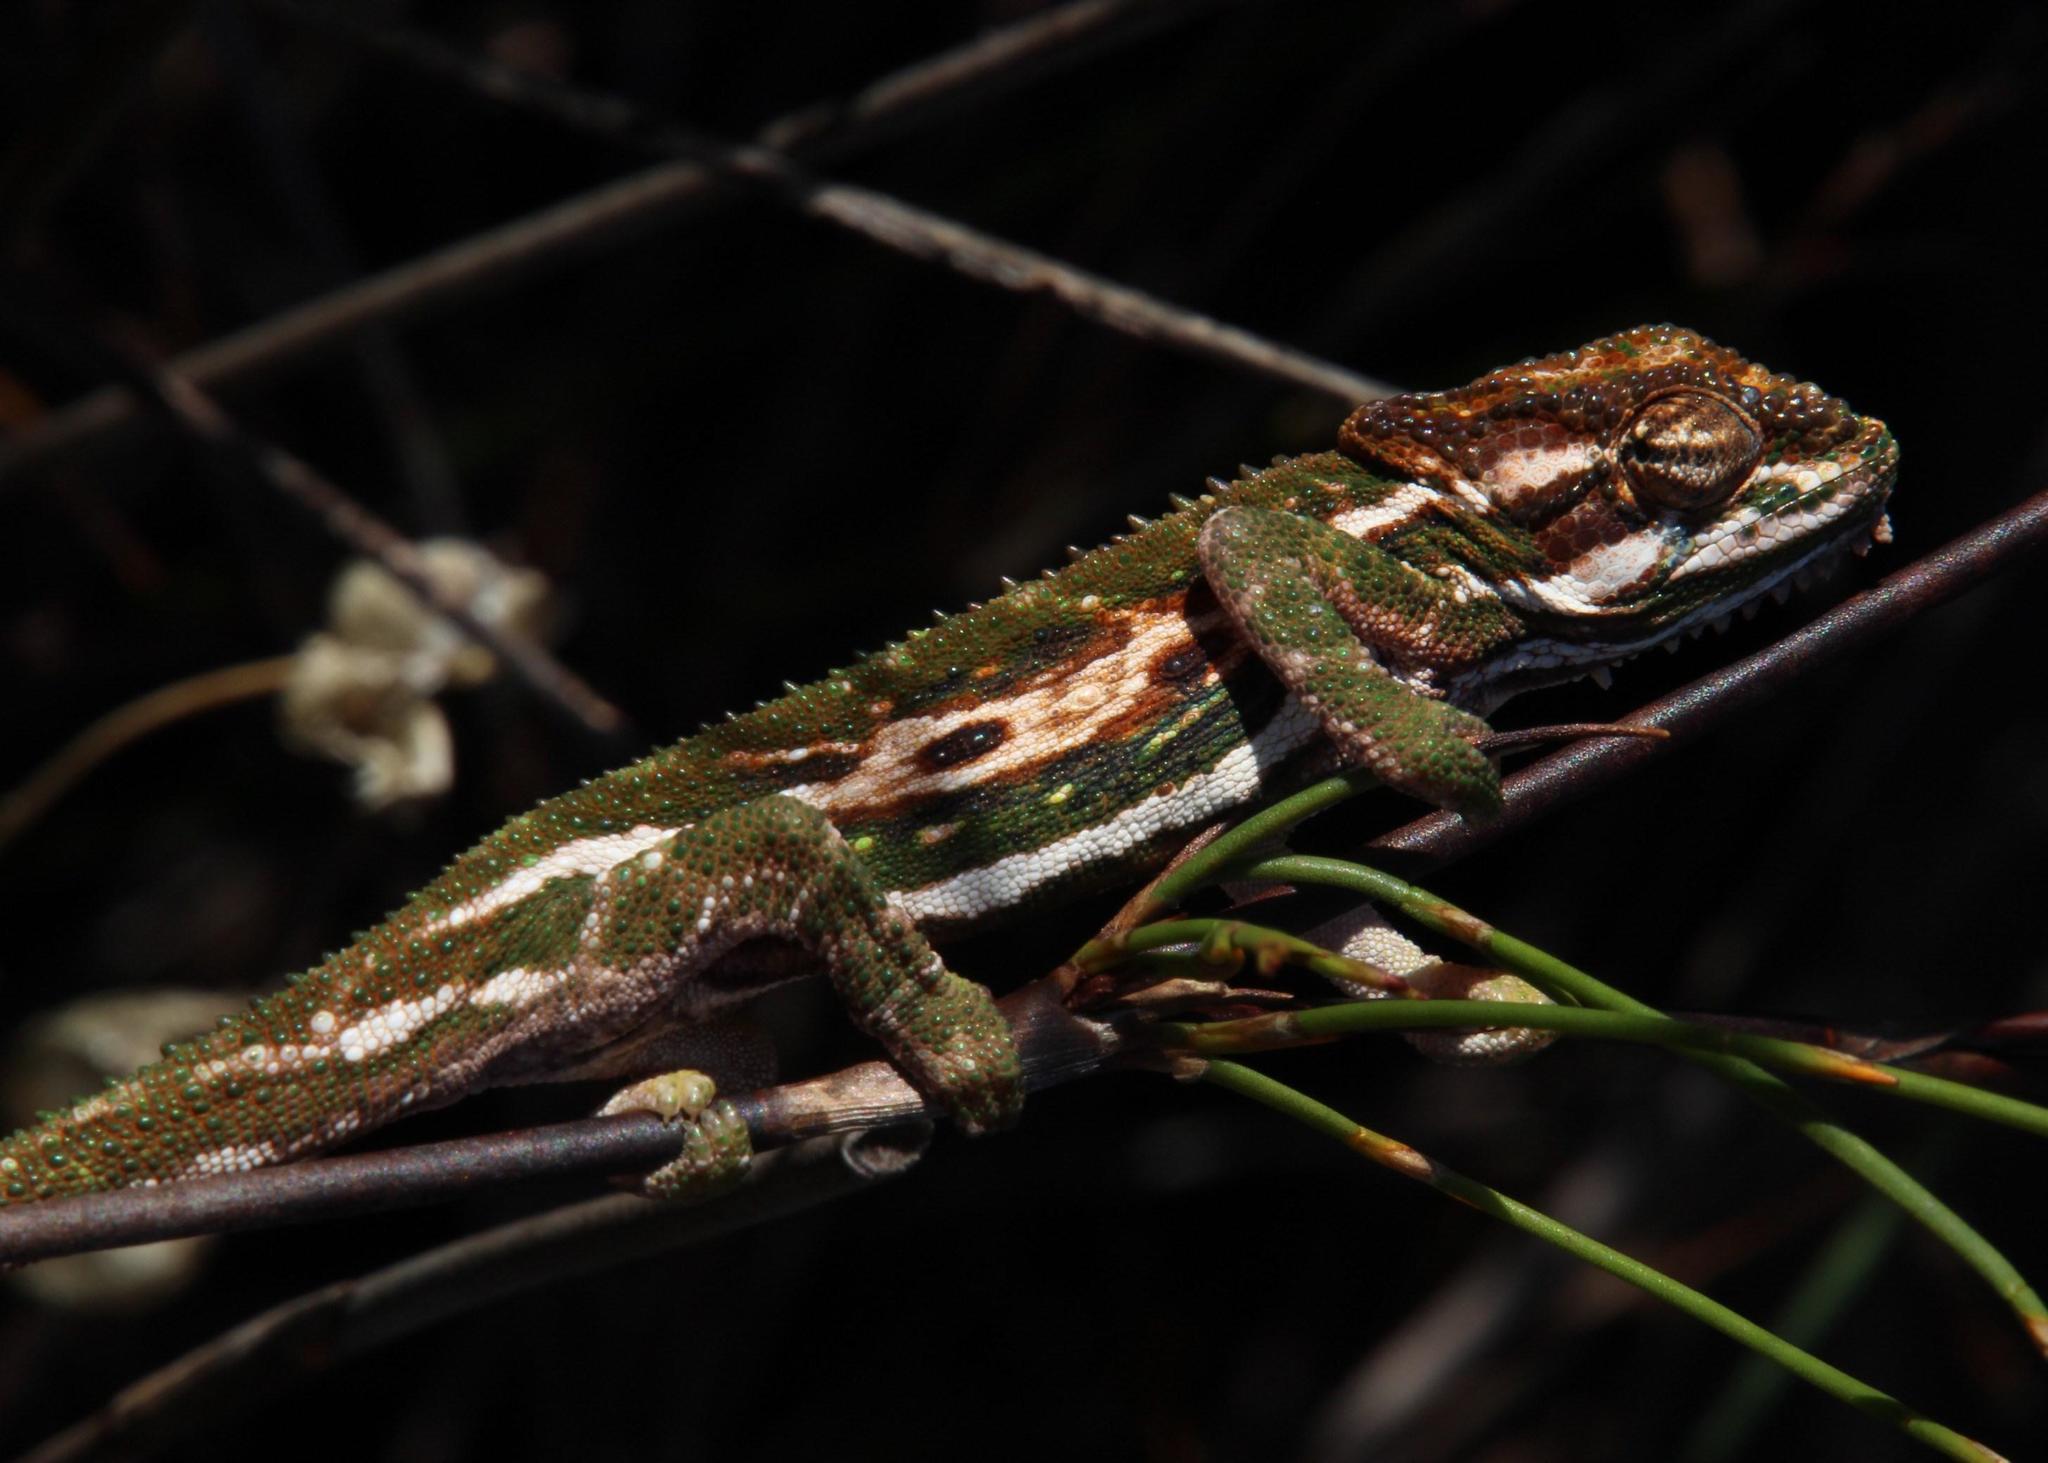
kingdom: Animalia
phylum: Chordata
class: Squamata
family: Chamaeleonidae
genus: Bradypodion
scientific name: Bradypodion pumilum
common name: Cape dwarf chameleon
